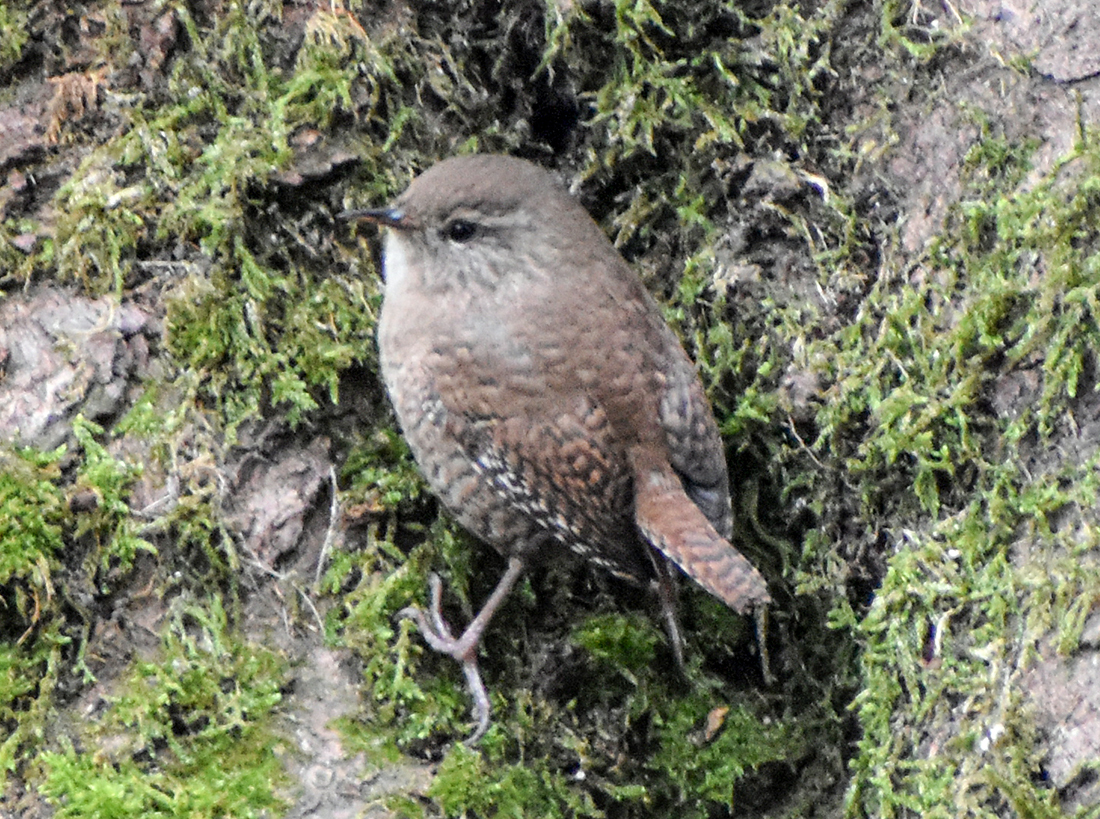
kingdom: Animalia
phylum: Chordata
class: Aves
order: Passeriformes
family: Troglodytidae
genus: Troglodytes
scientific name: Troglodytes troglodytes
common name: Eurasian wren
